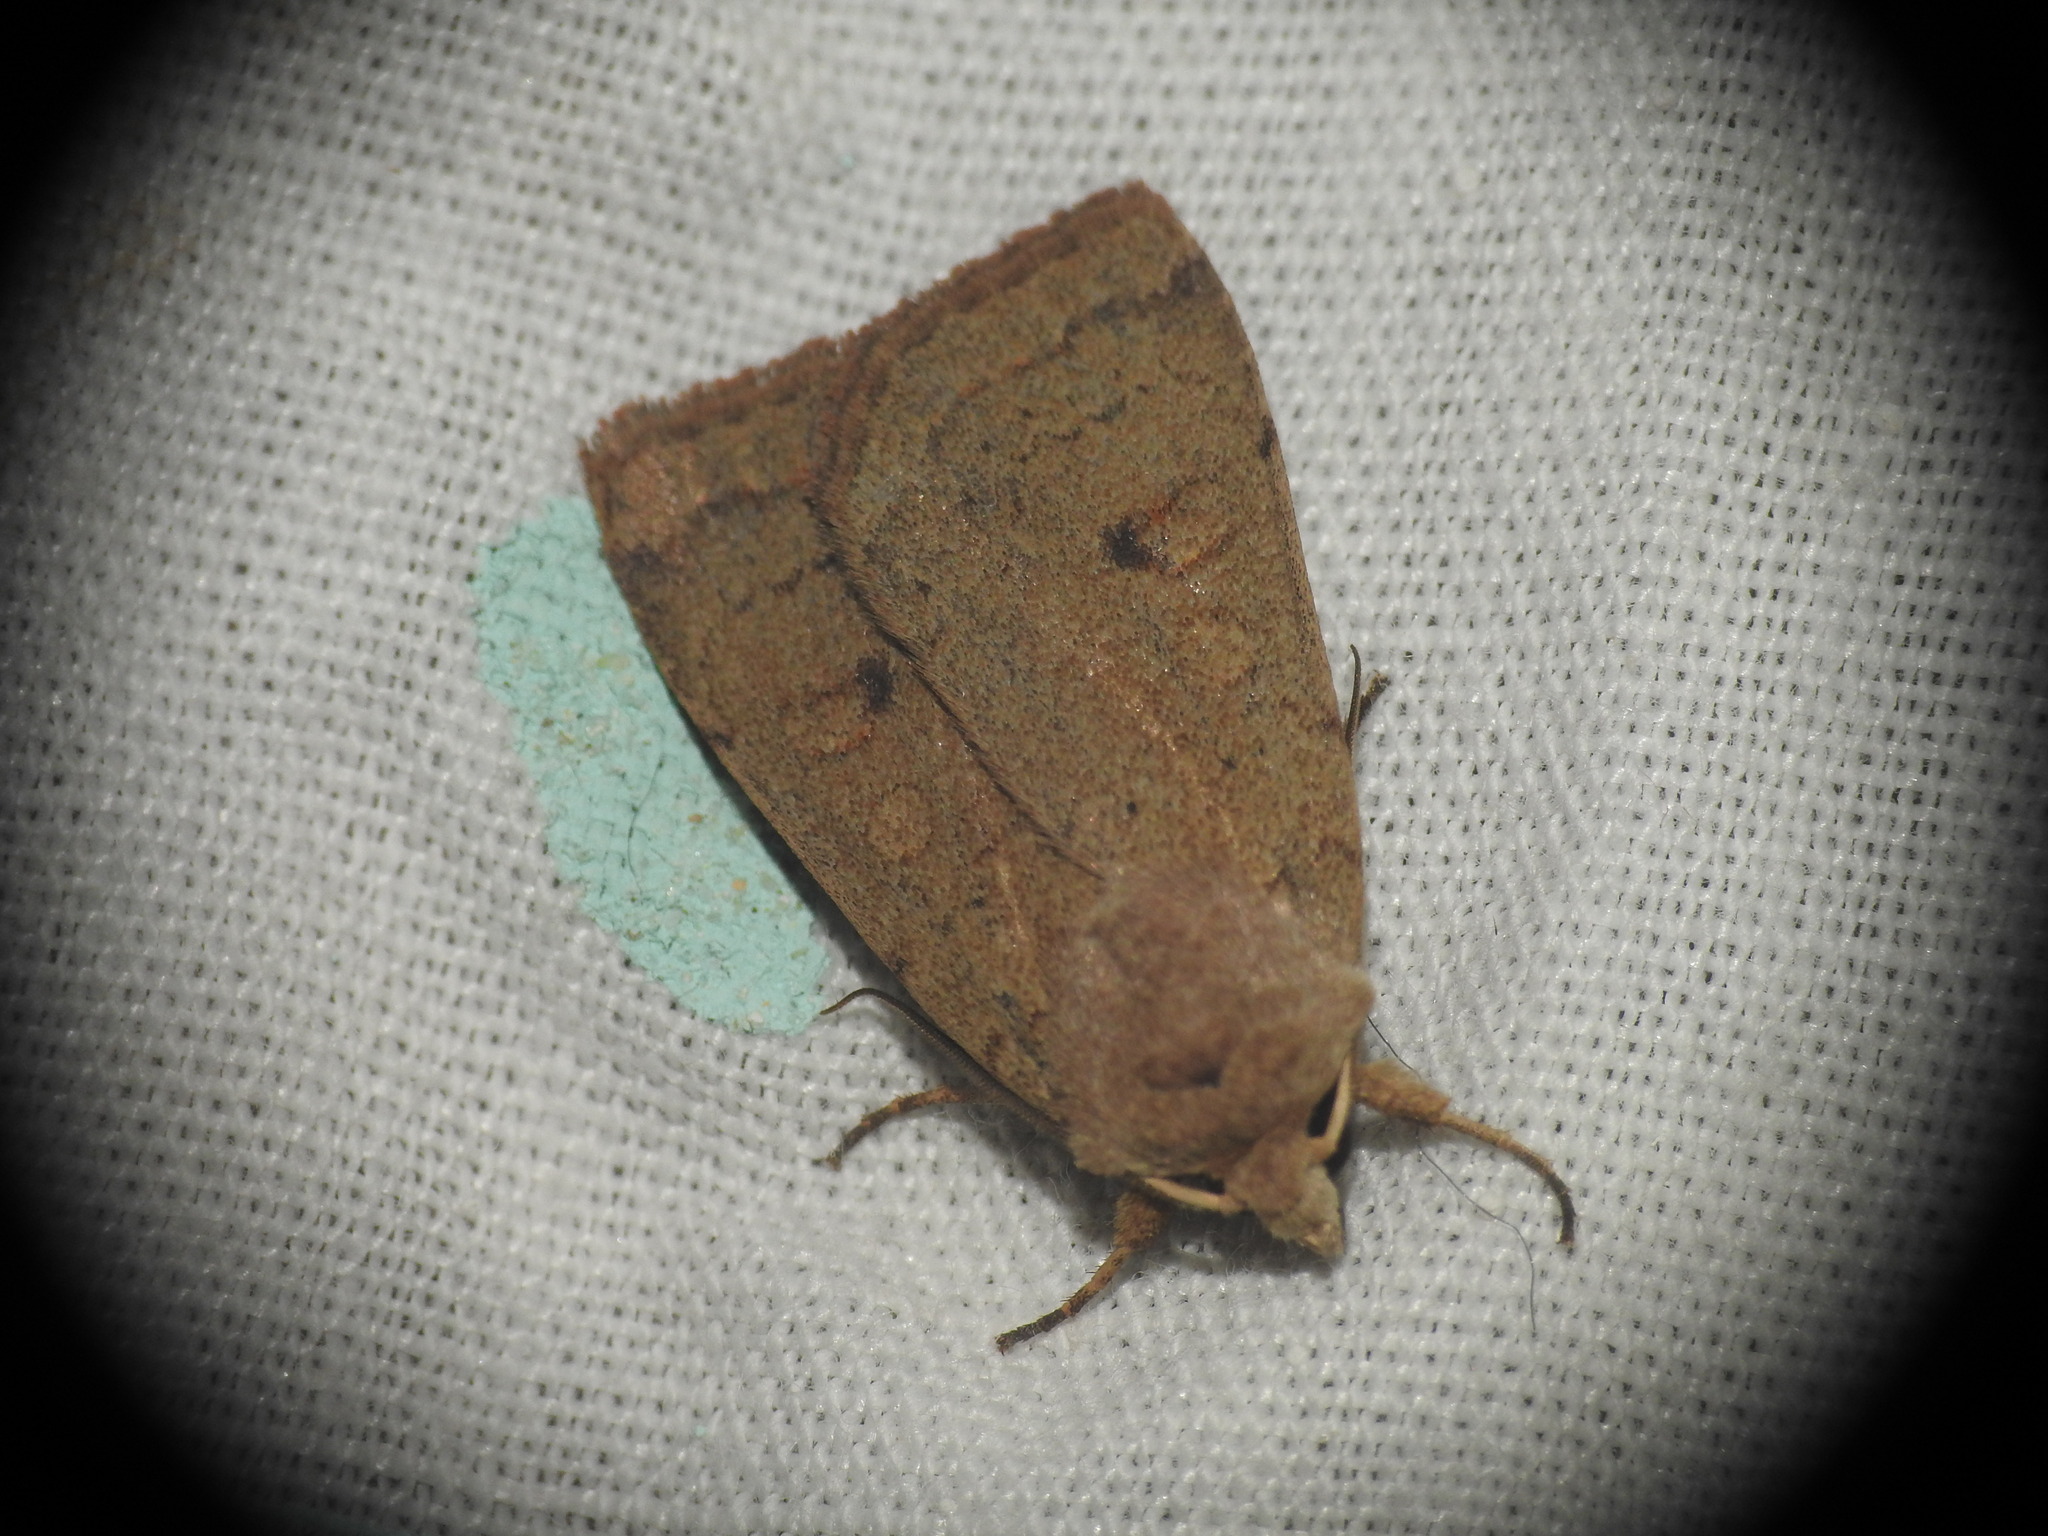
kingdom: Animalia
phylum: Arthropoda
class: Insecta
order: Lepidoptera
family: Noctuidae
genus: Xestia
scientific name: Xestia castanea
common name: Neglected rustic
